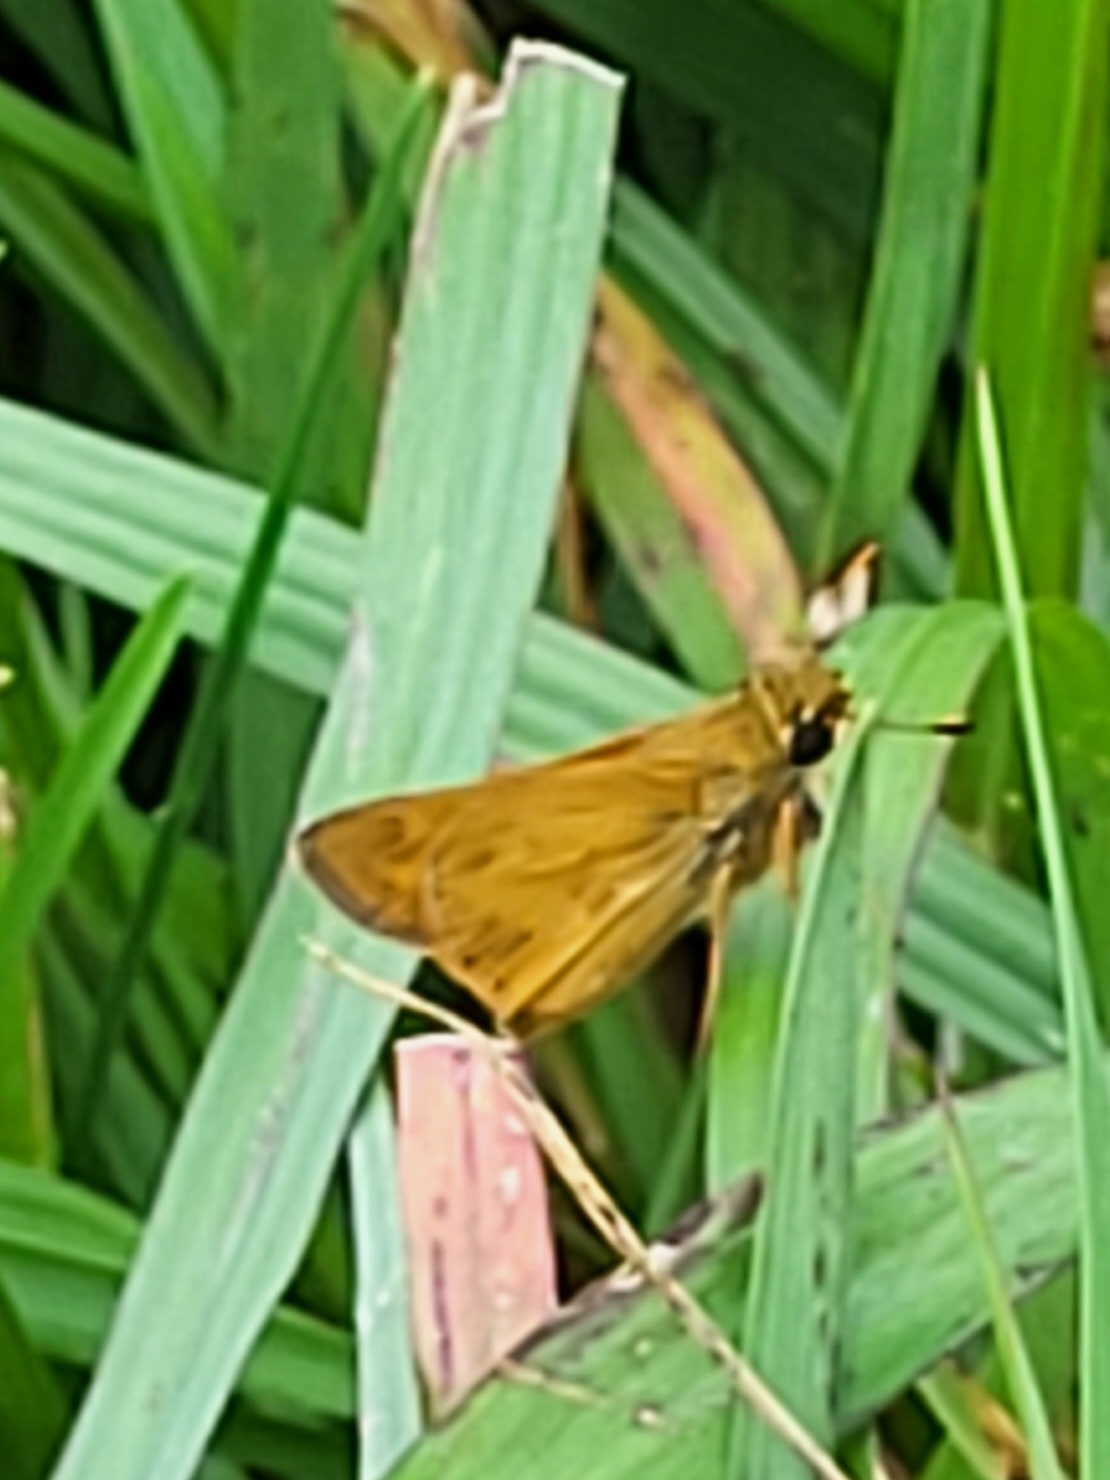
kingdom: Animalia
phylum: Arthropoda
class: Insecta
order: Lepidoptera
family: Hesperiidae
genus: Atalopedes
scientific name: Atalopedes
